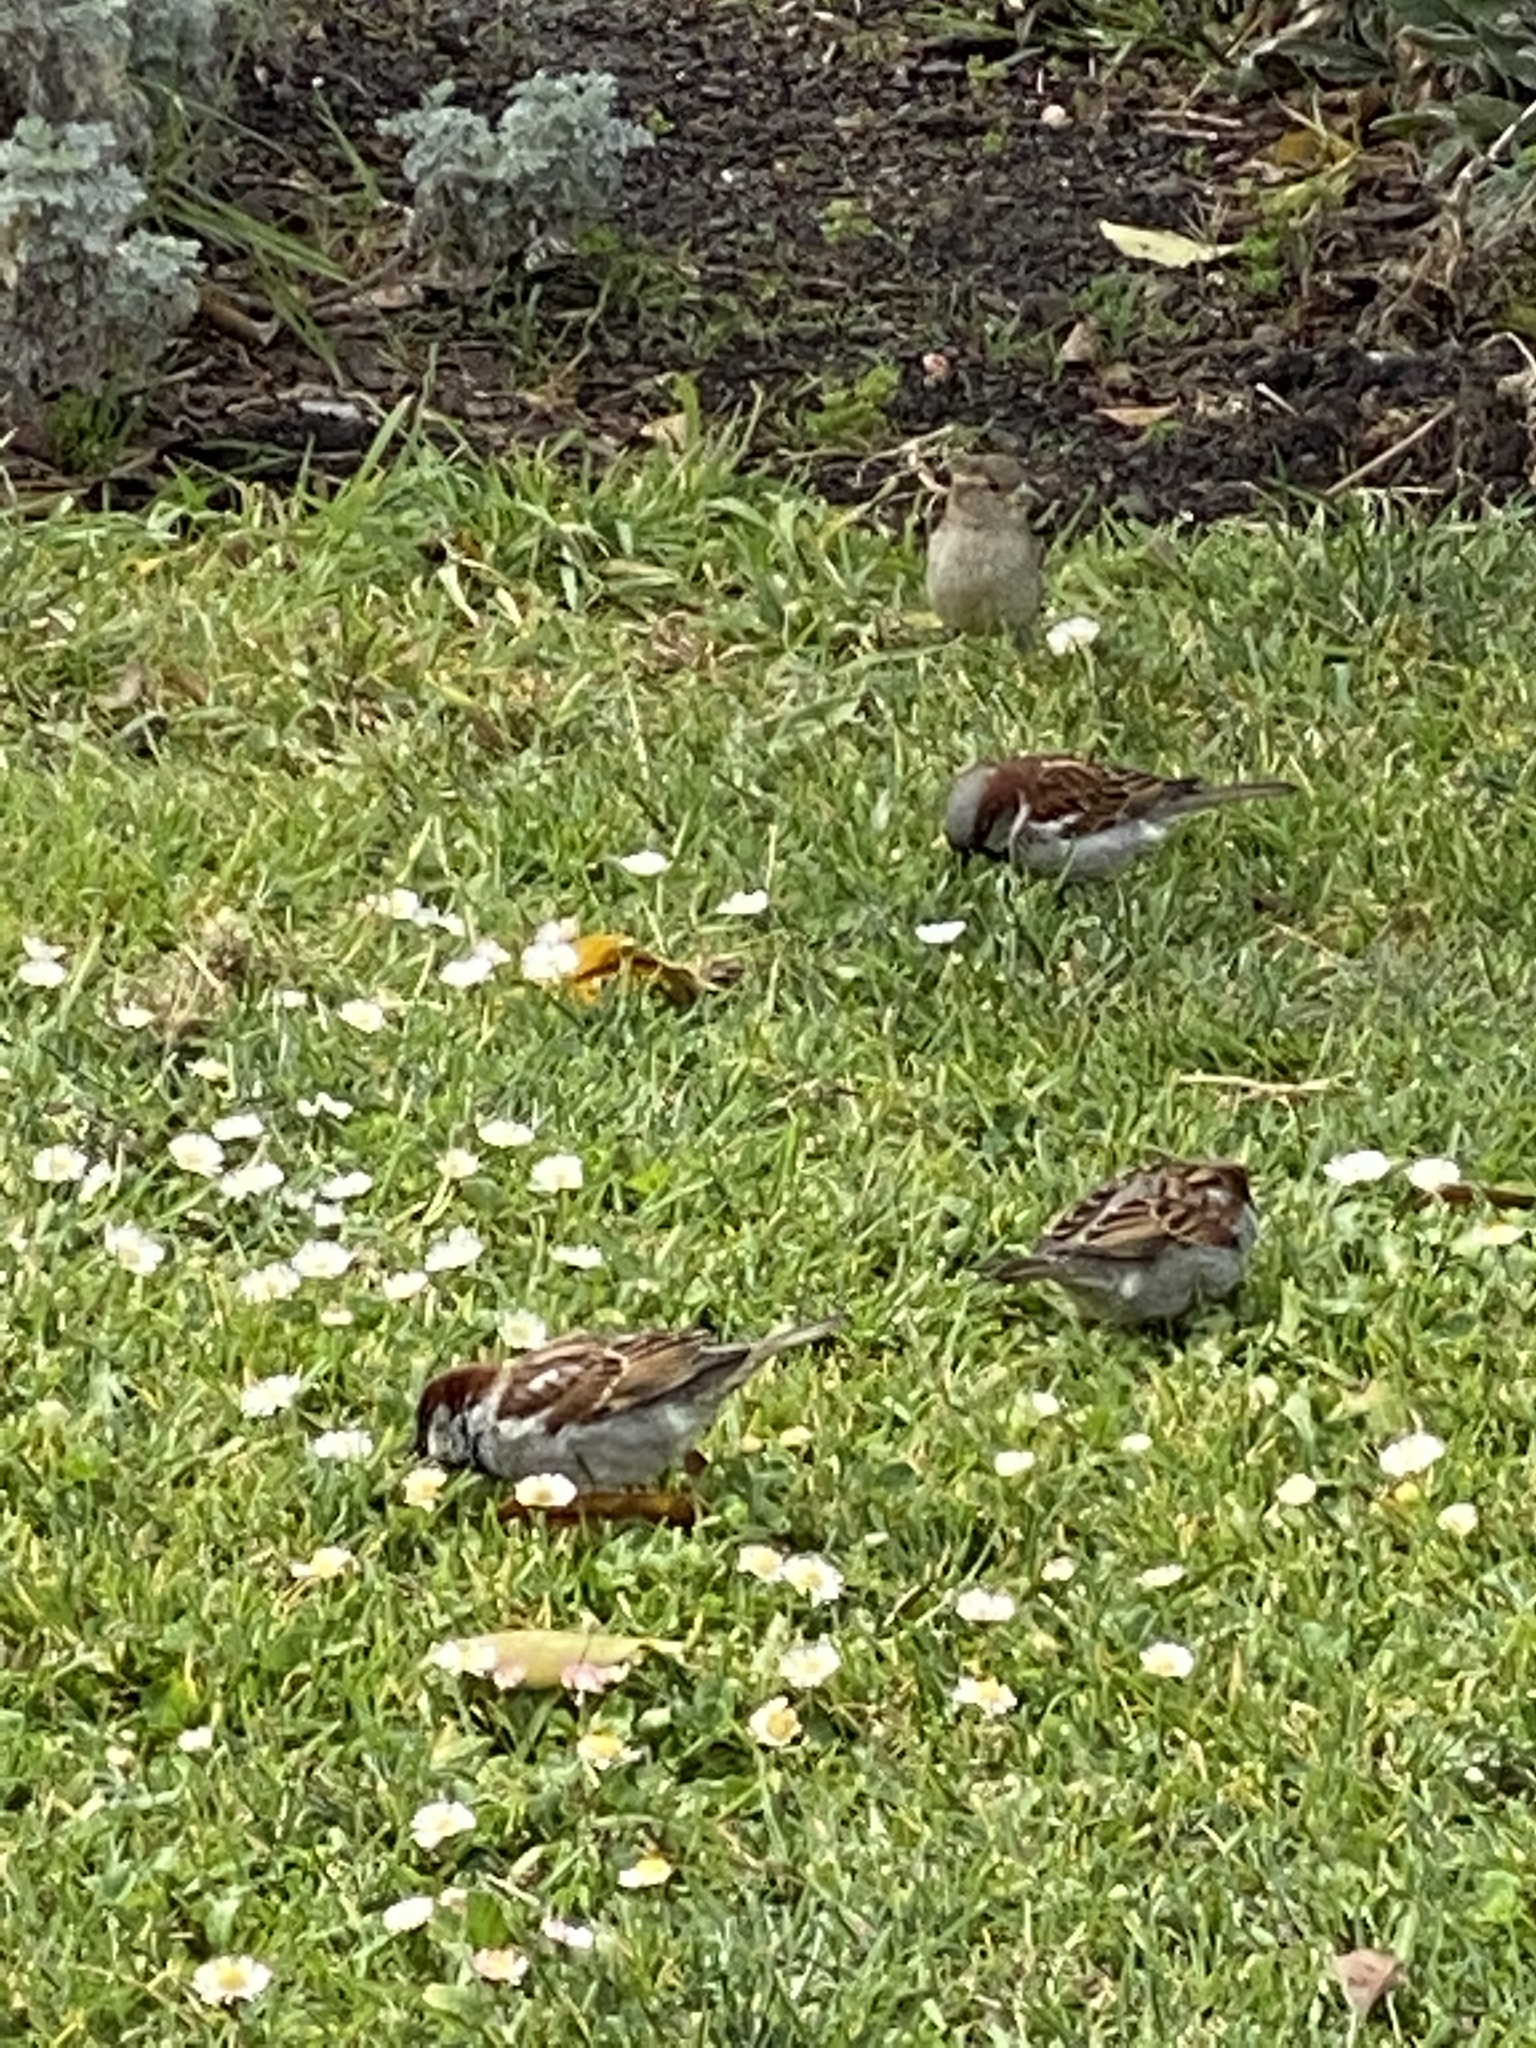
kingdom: Animalia
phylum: Chordata
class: Aves
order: Passeriformes
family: Passeridae
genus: Passer
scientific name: Passer domesticus
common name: House sparrow
